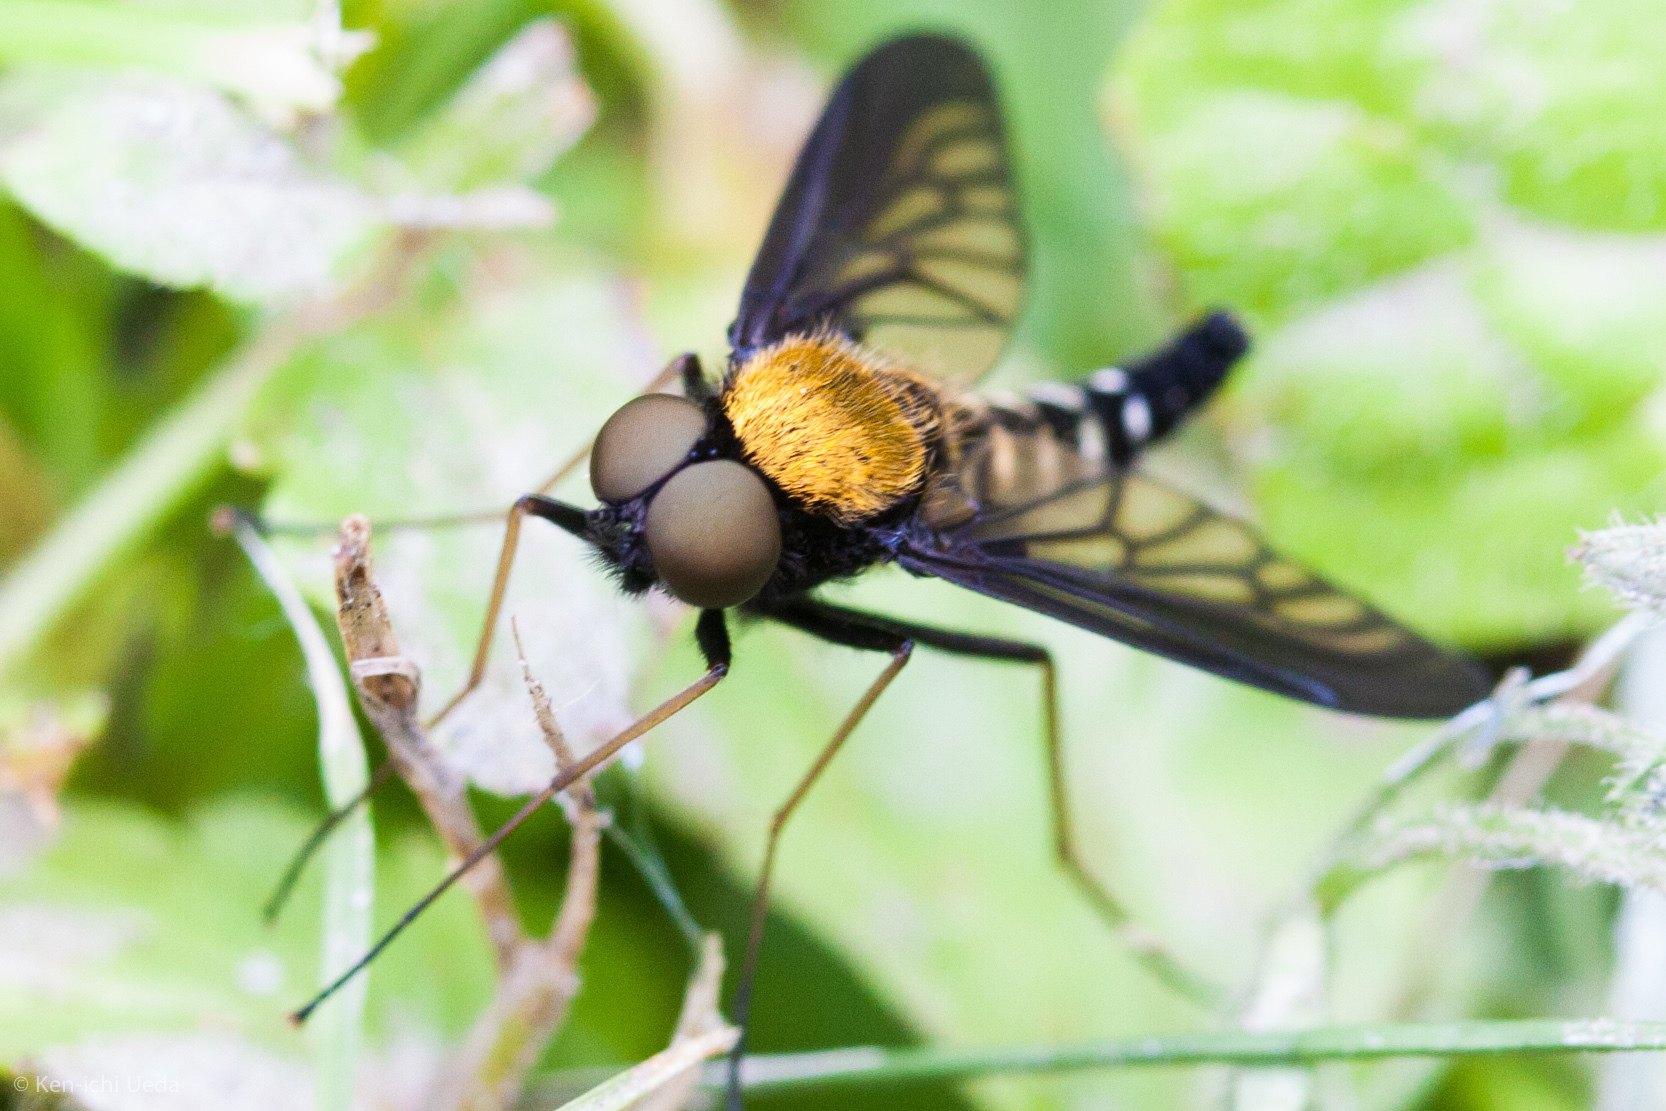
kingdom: Animalia
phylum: Arthropoda
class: Insecta
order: Diptera
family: Rhagionidae
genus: Chrysopilus
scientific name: Chrysopilus thoracicus
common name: Golden-backed snipe fly
